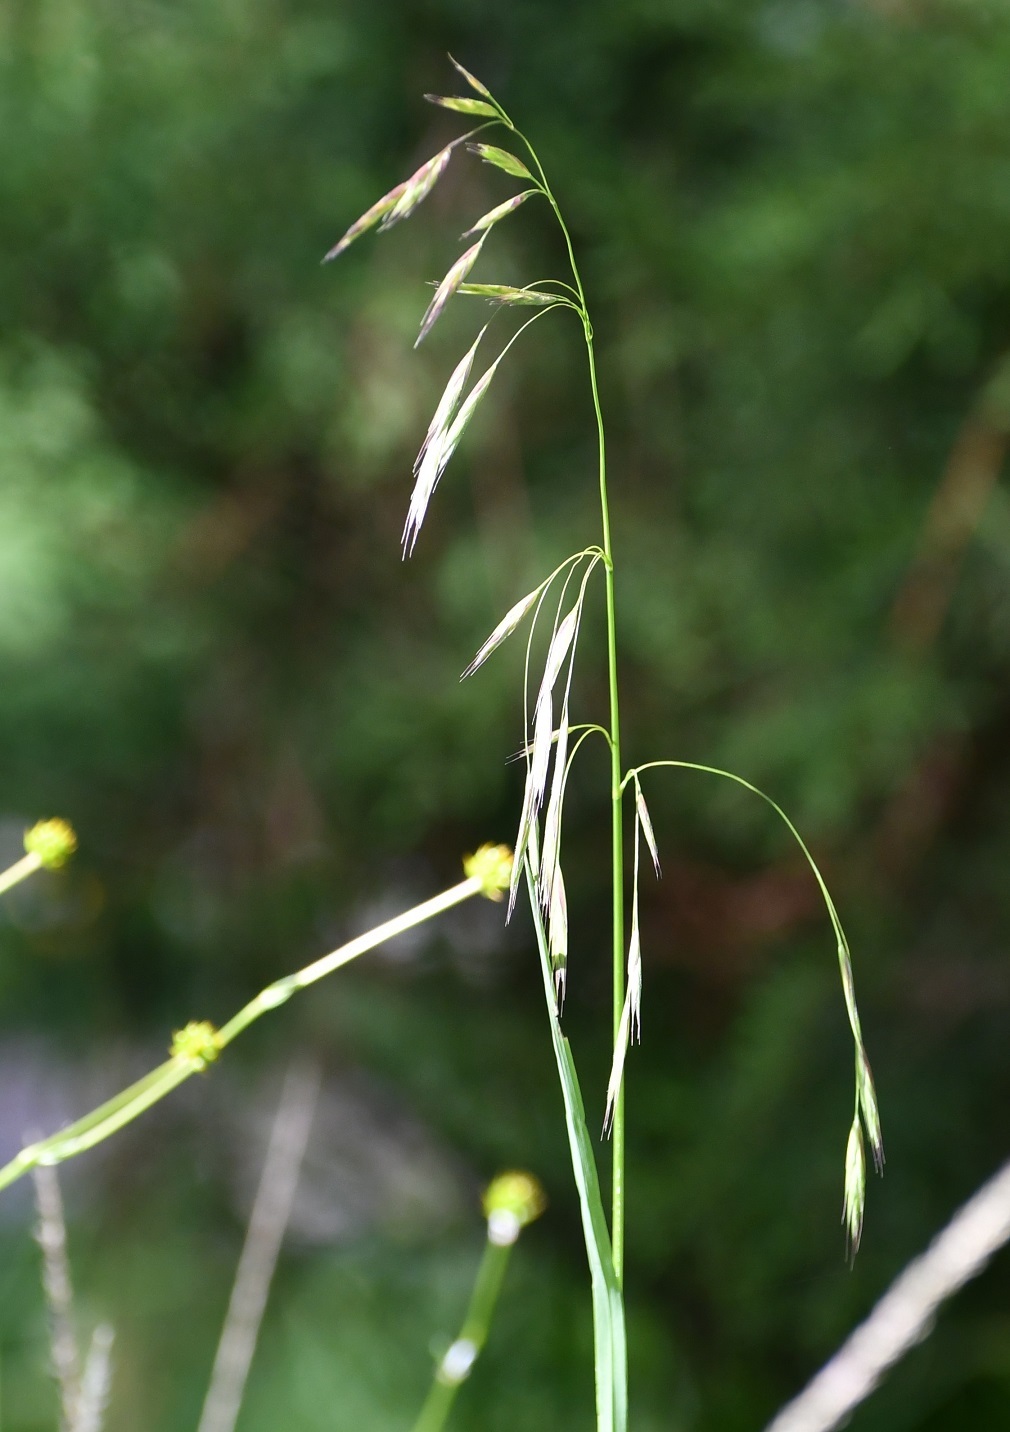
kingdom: Plantae
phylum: Tracheophyta
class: Liliopsida
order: Poales
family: Poaceae
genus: Bromus
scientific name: Bromus anomalus
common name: Nodding brome
